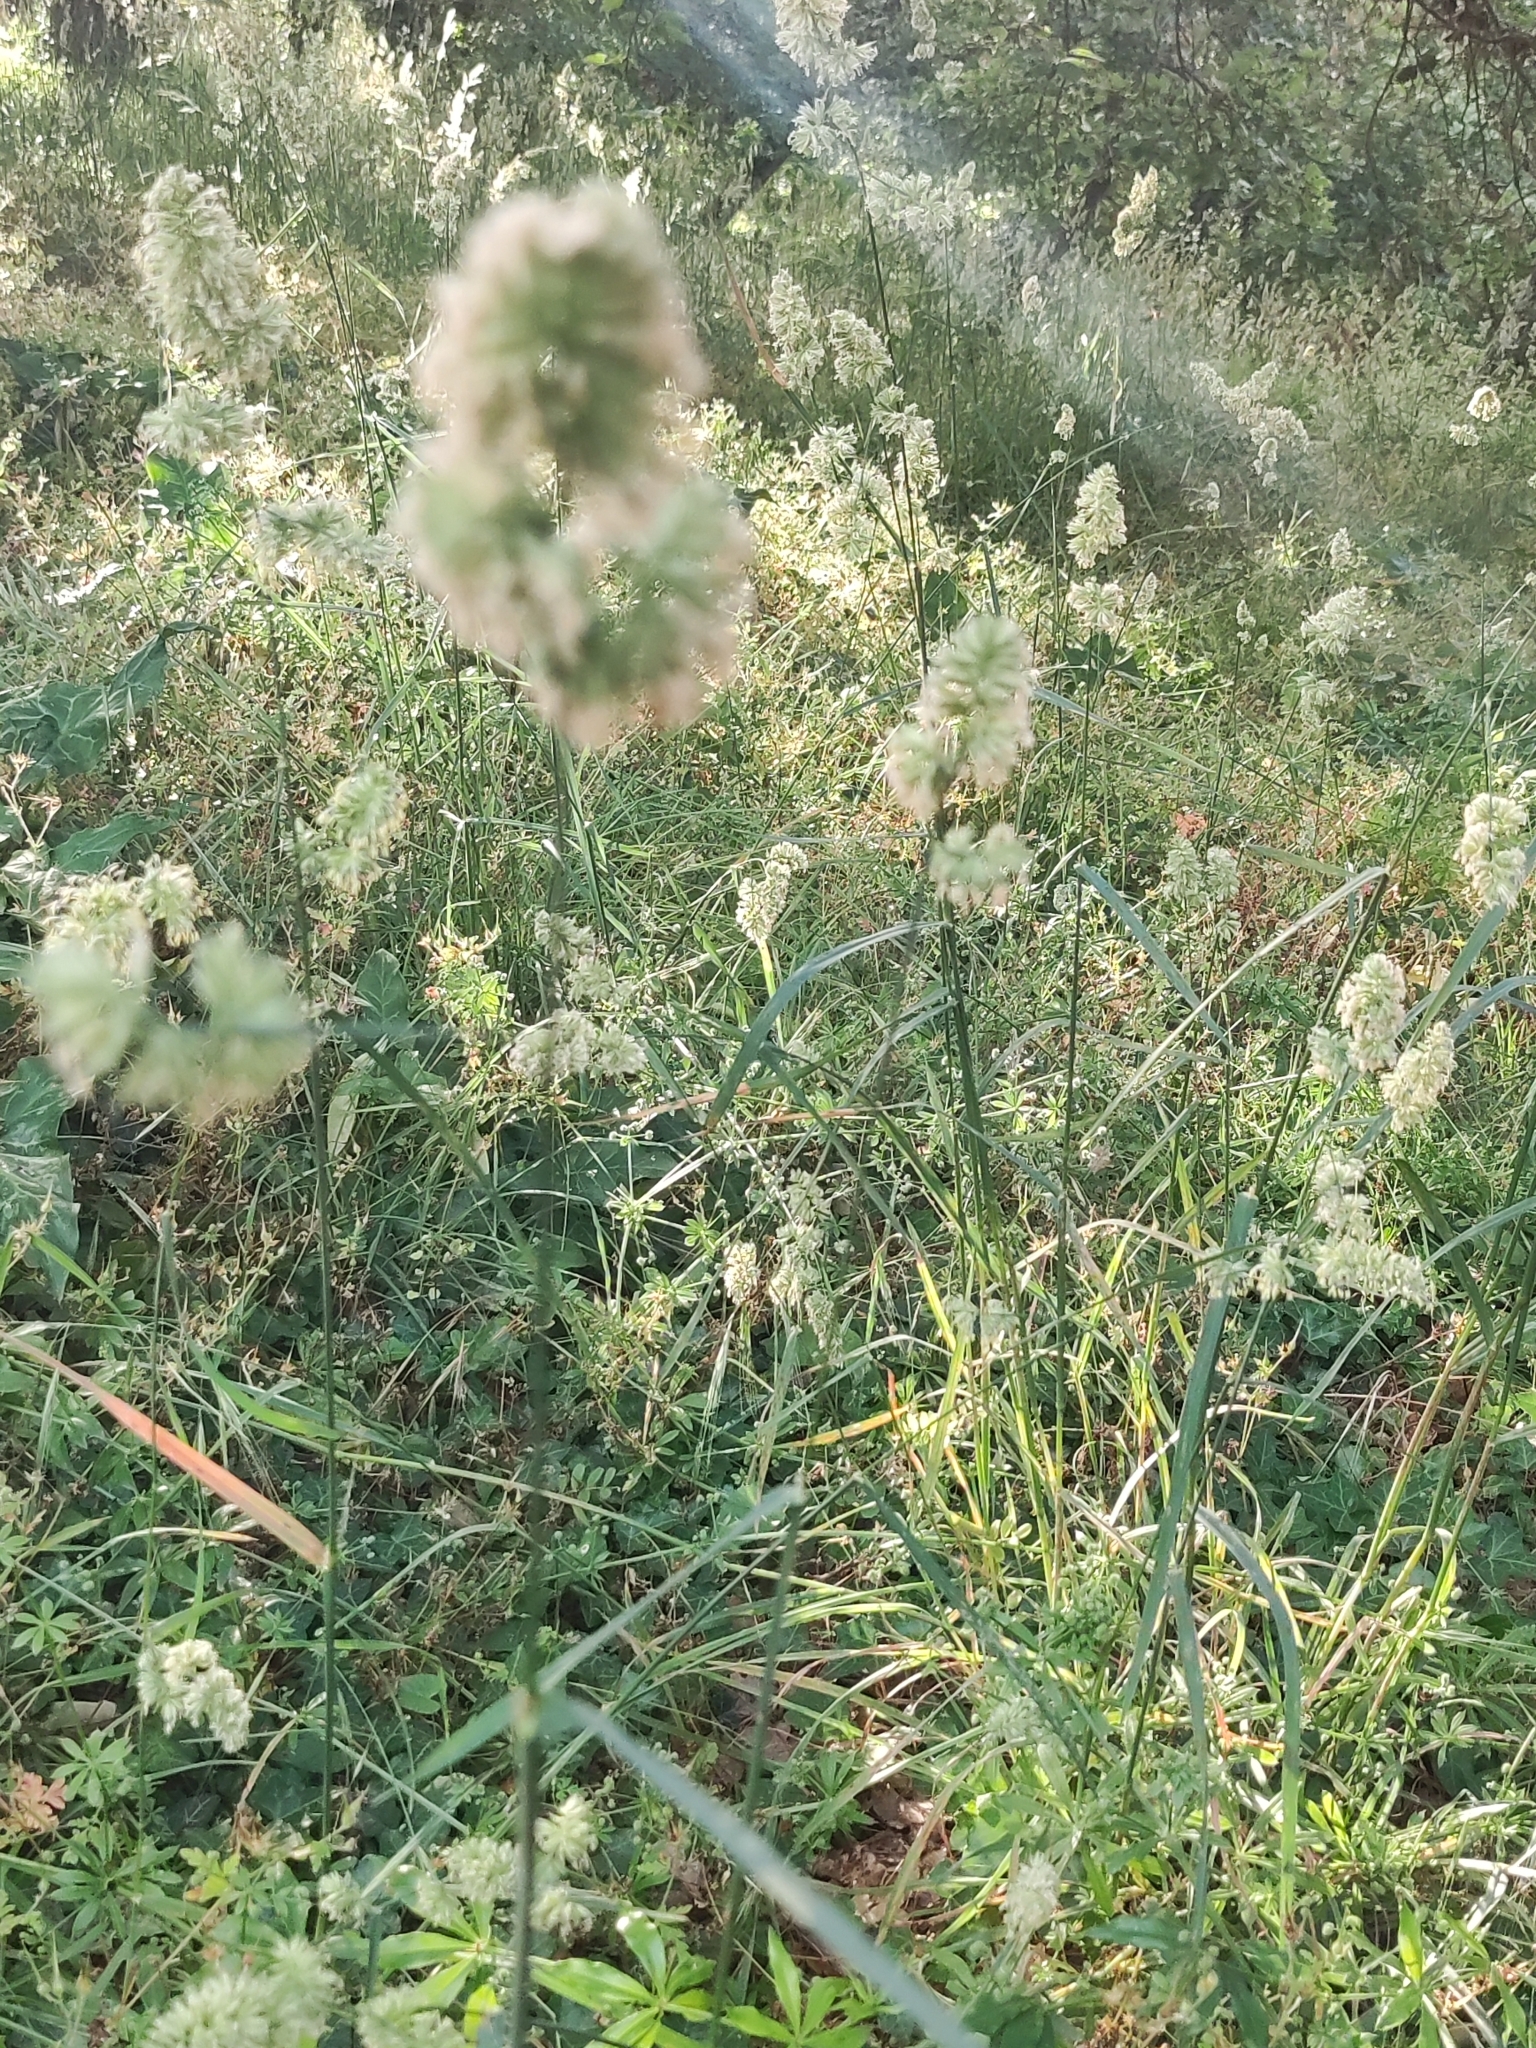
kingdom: Plantae
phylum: Tracheophyta
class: Liliopsida
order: Poales
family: Poaceae
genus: Dactylis
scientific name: Dactylis glomerata
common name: Orchardgrass
